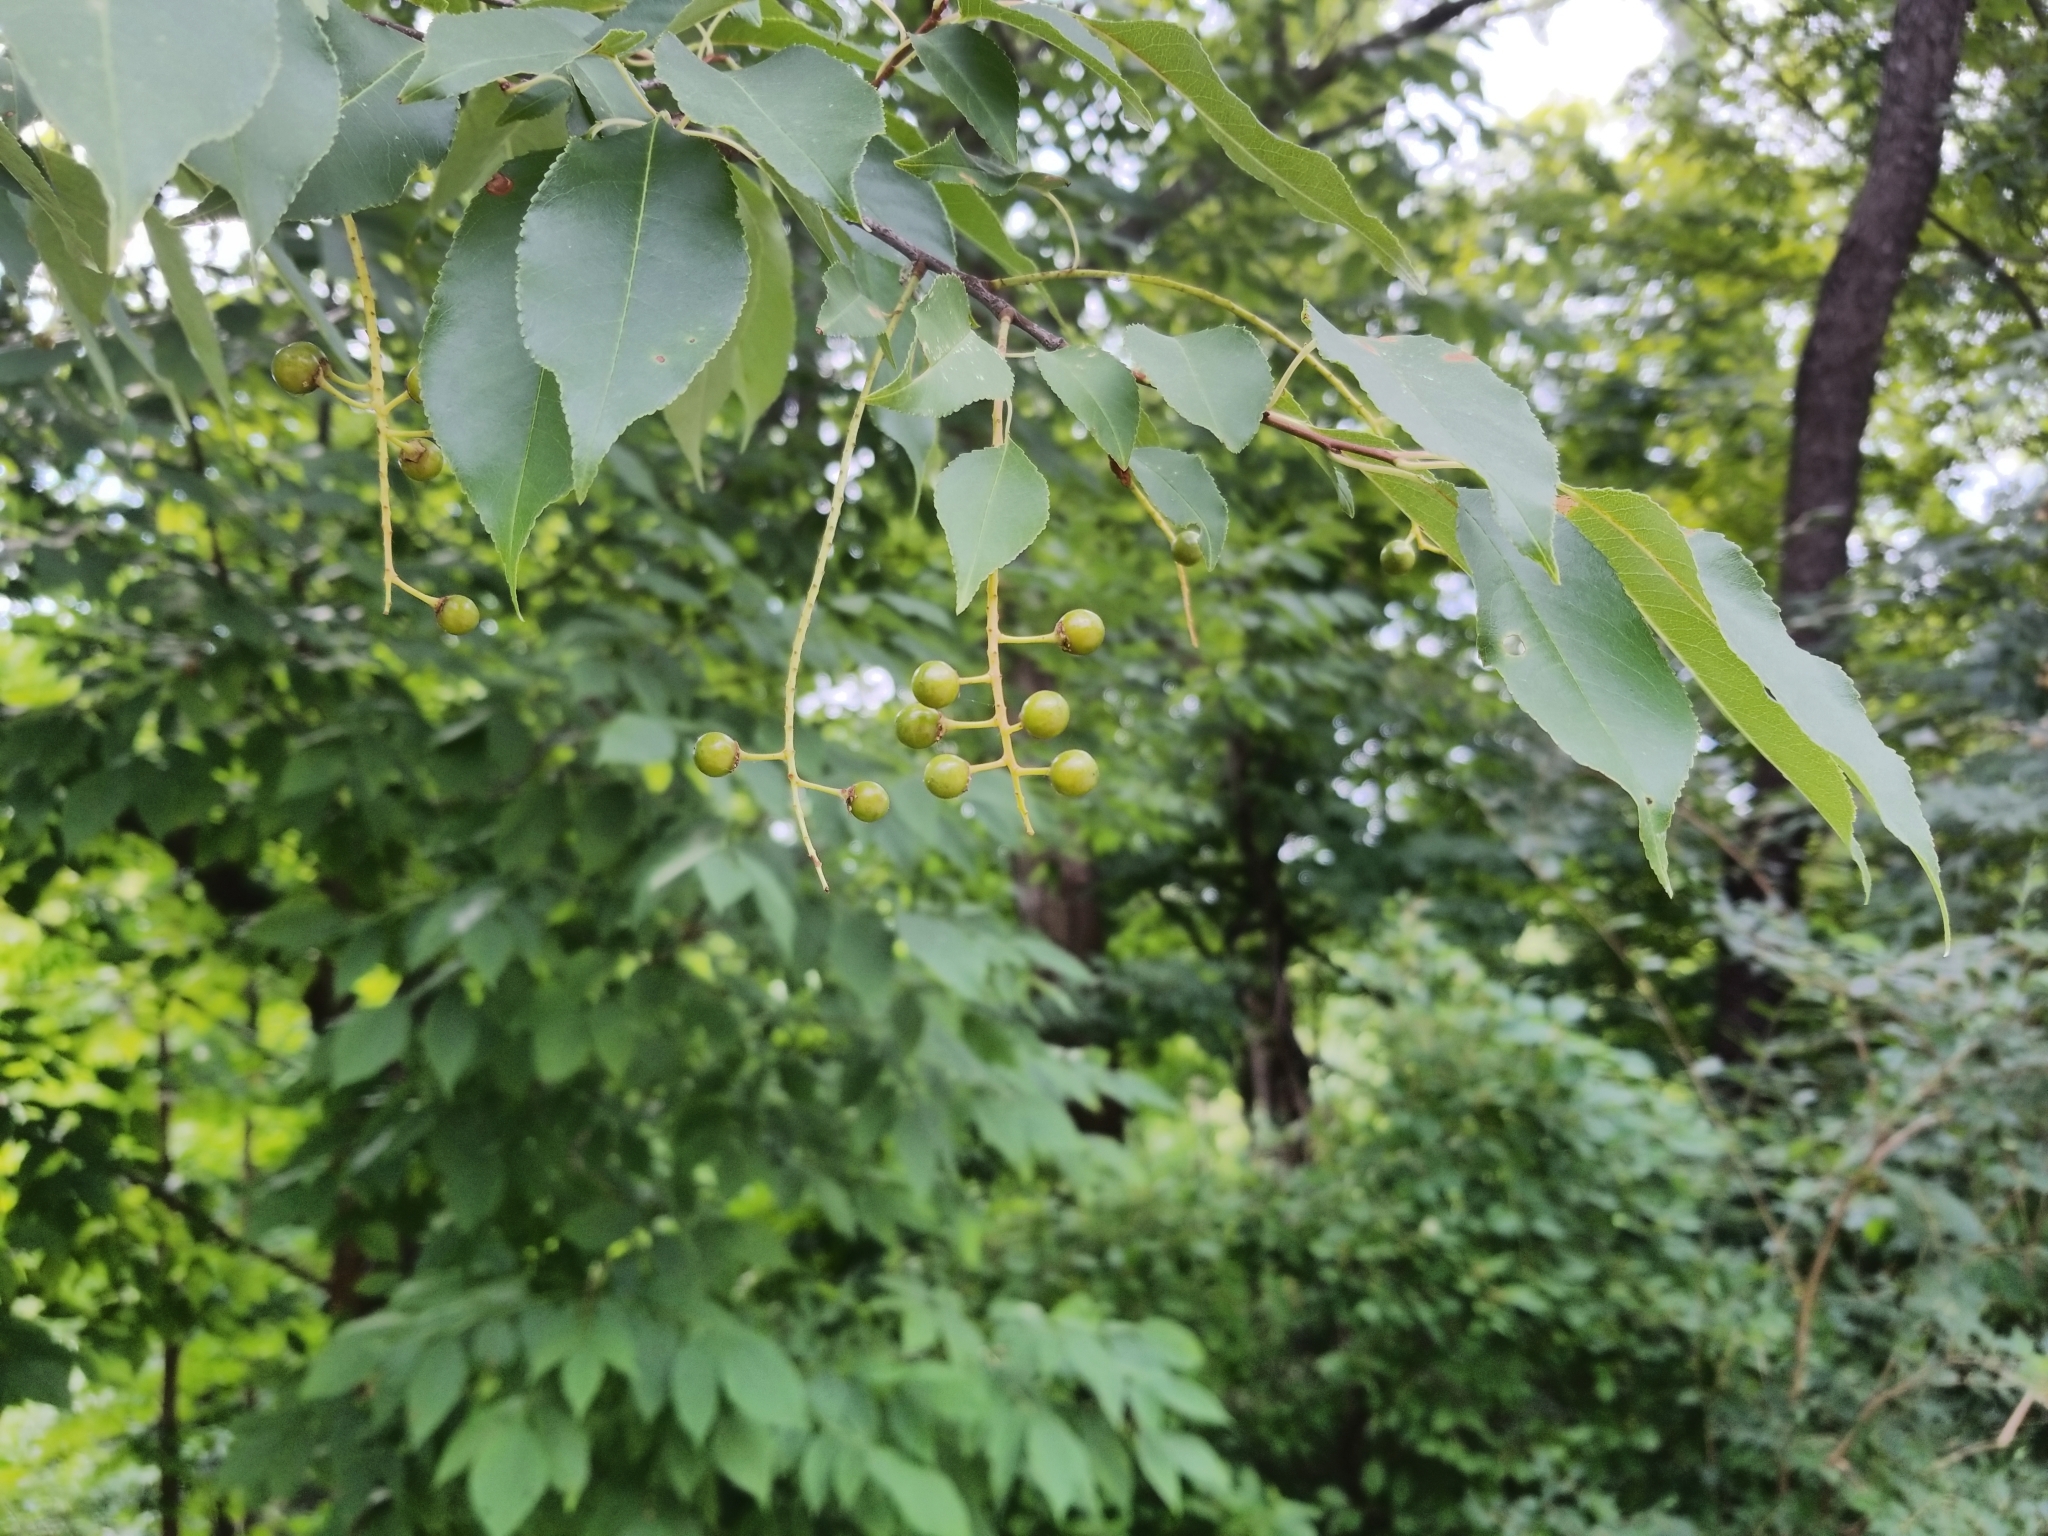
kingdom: Plantae
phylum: Tracheophyta
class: Magnoliopsida
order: Rosales
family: Rosaceae
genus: Prunus
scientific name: Prunus serotina
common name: Black cherry
